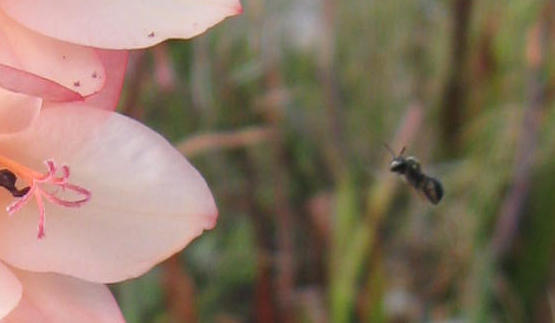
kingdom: Plantae
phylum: Tracheophyta
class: Liliopsida
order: Asparagales
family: Iridaceae
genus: Watsonia
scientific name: Watsonia tabularis
